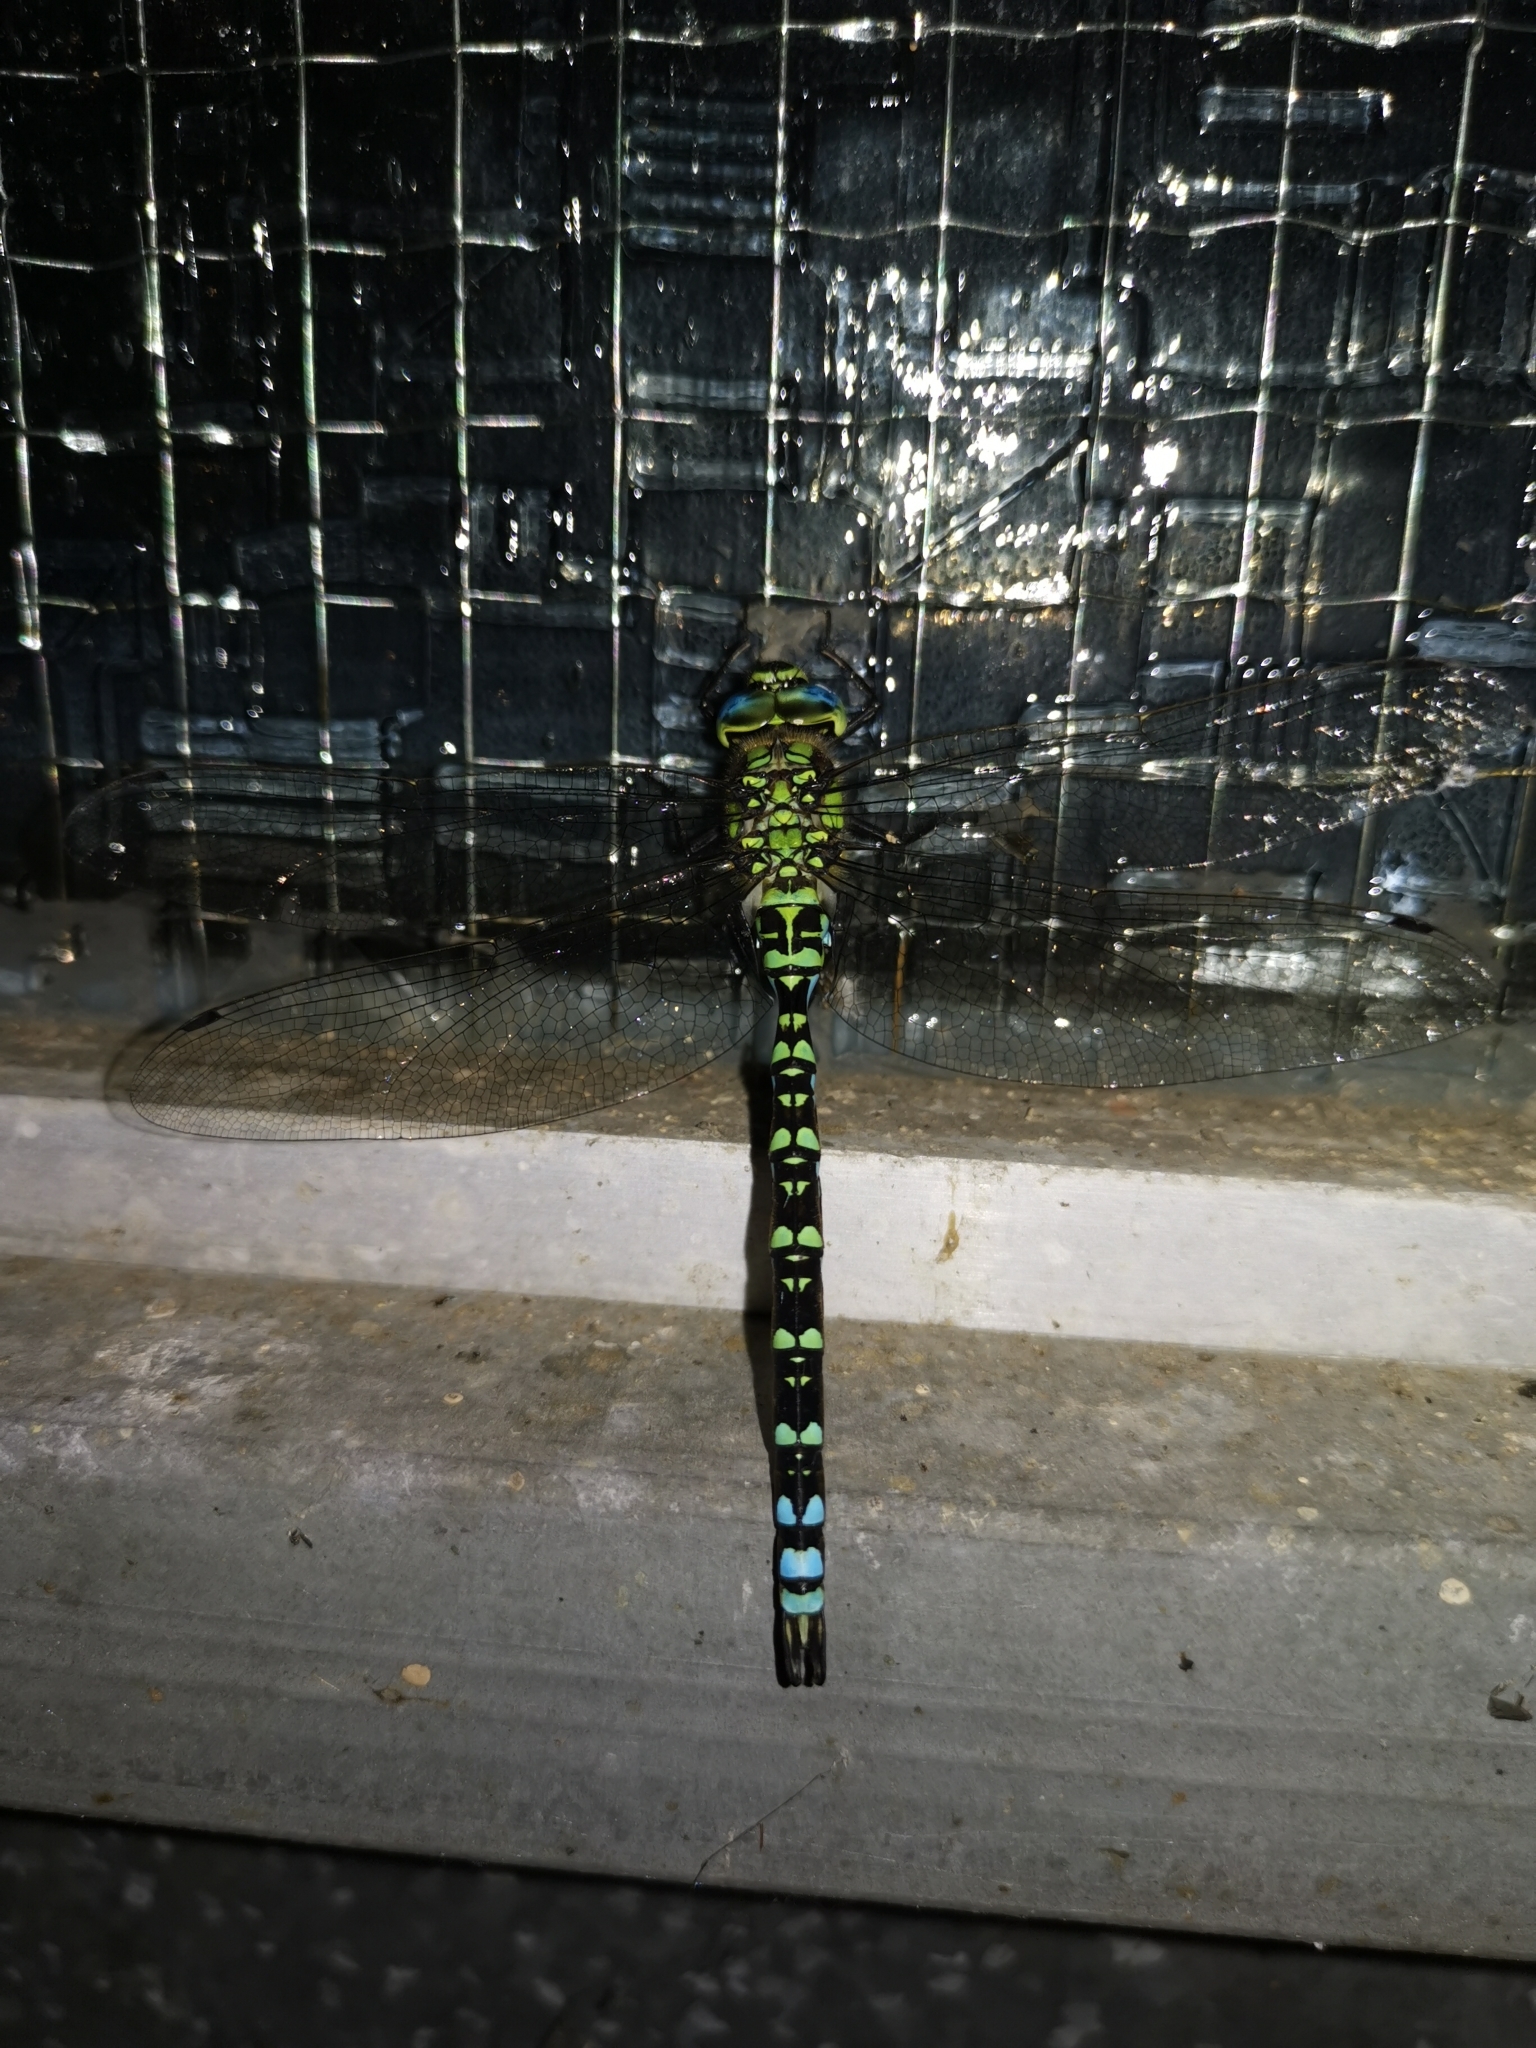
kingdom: Animalia
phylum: Arthropoda
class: Insecta
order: Odonata
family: Aeshnidae
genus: Aeshna
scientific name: Aeshna cyanea
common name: Southern hawker
